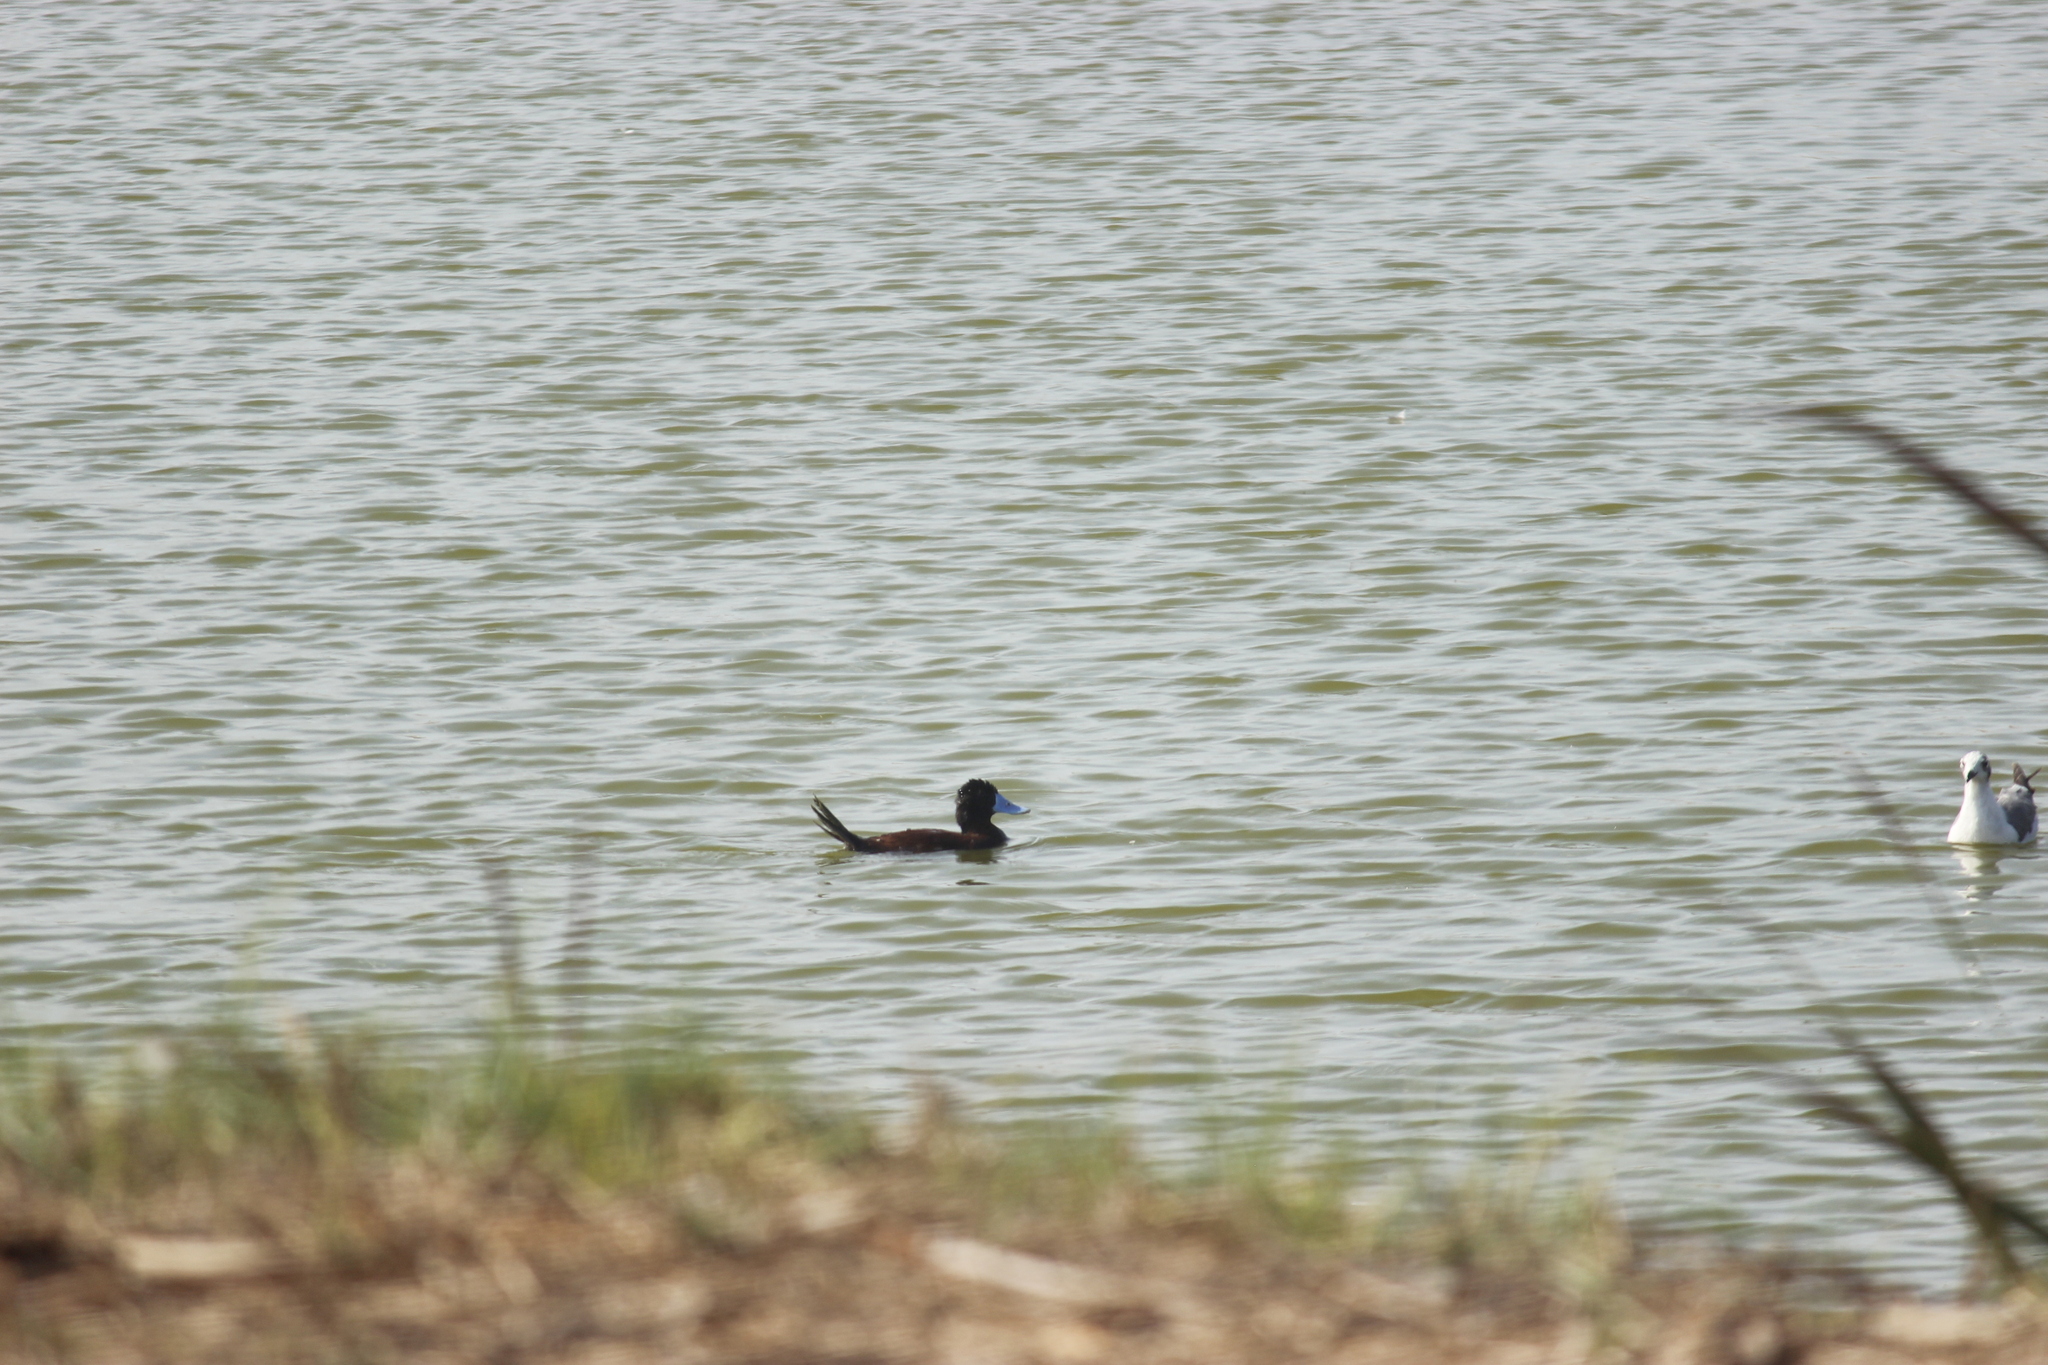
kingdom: Animalia
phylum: Chordata
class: Aves
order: Anseriformes
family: Anatidae
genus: Oxyura
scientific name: Oxyura ferruginea
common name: Andean duck
